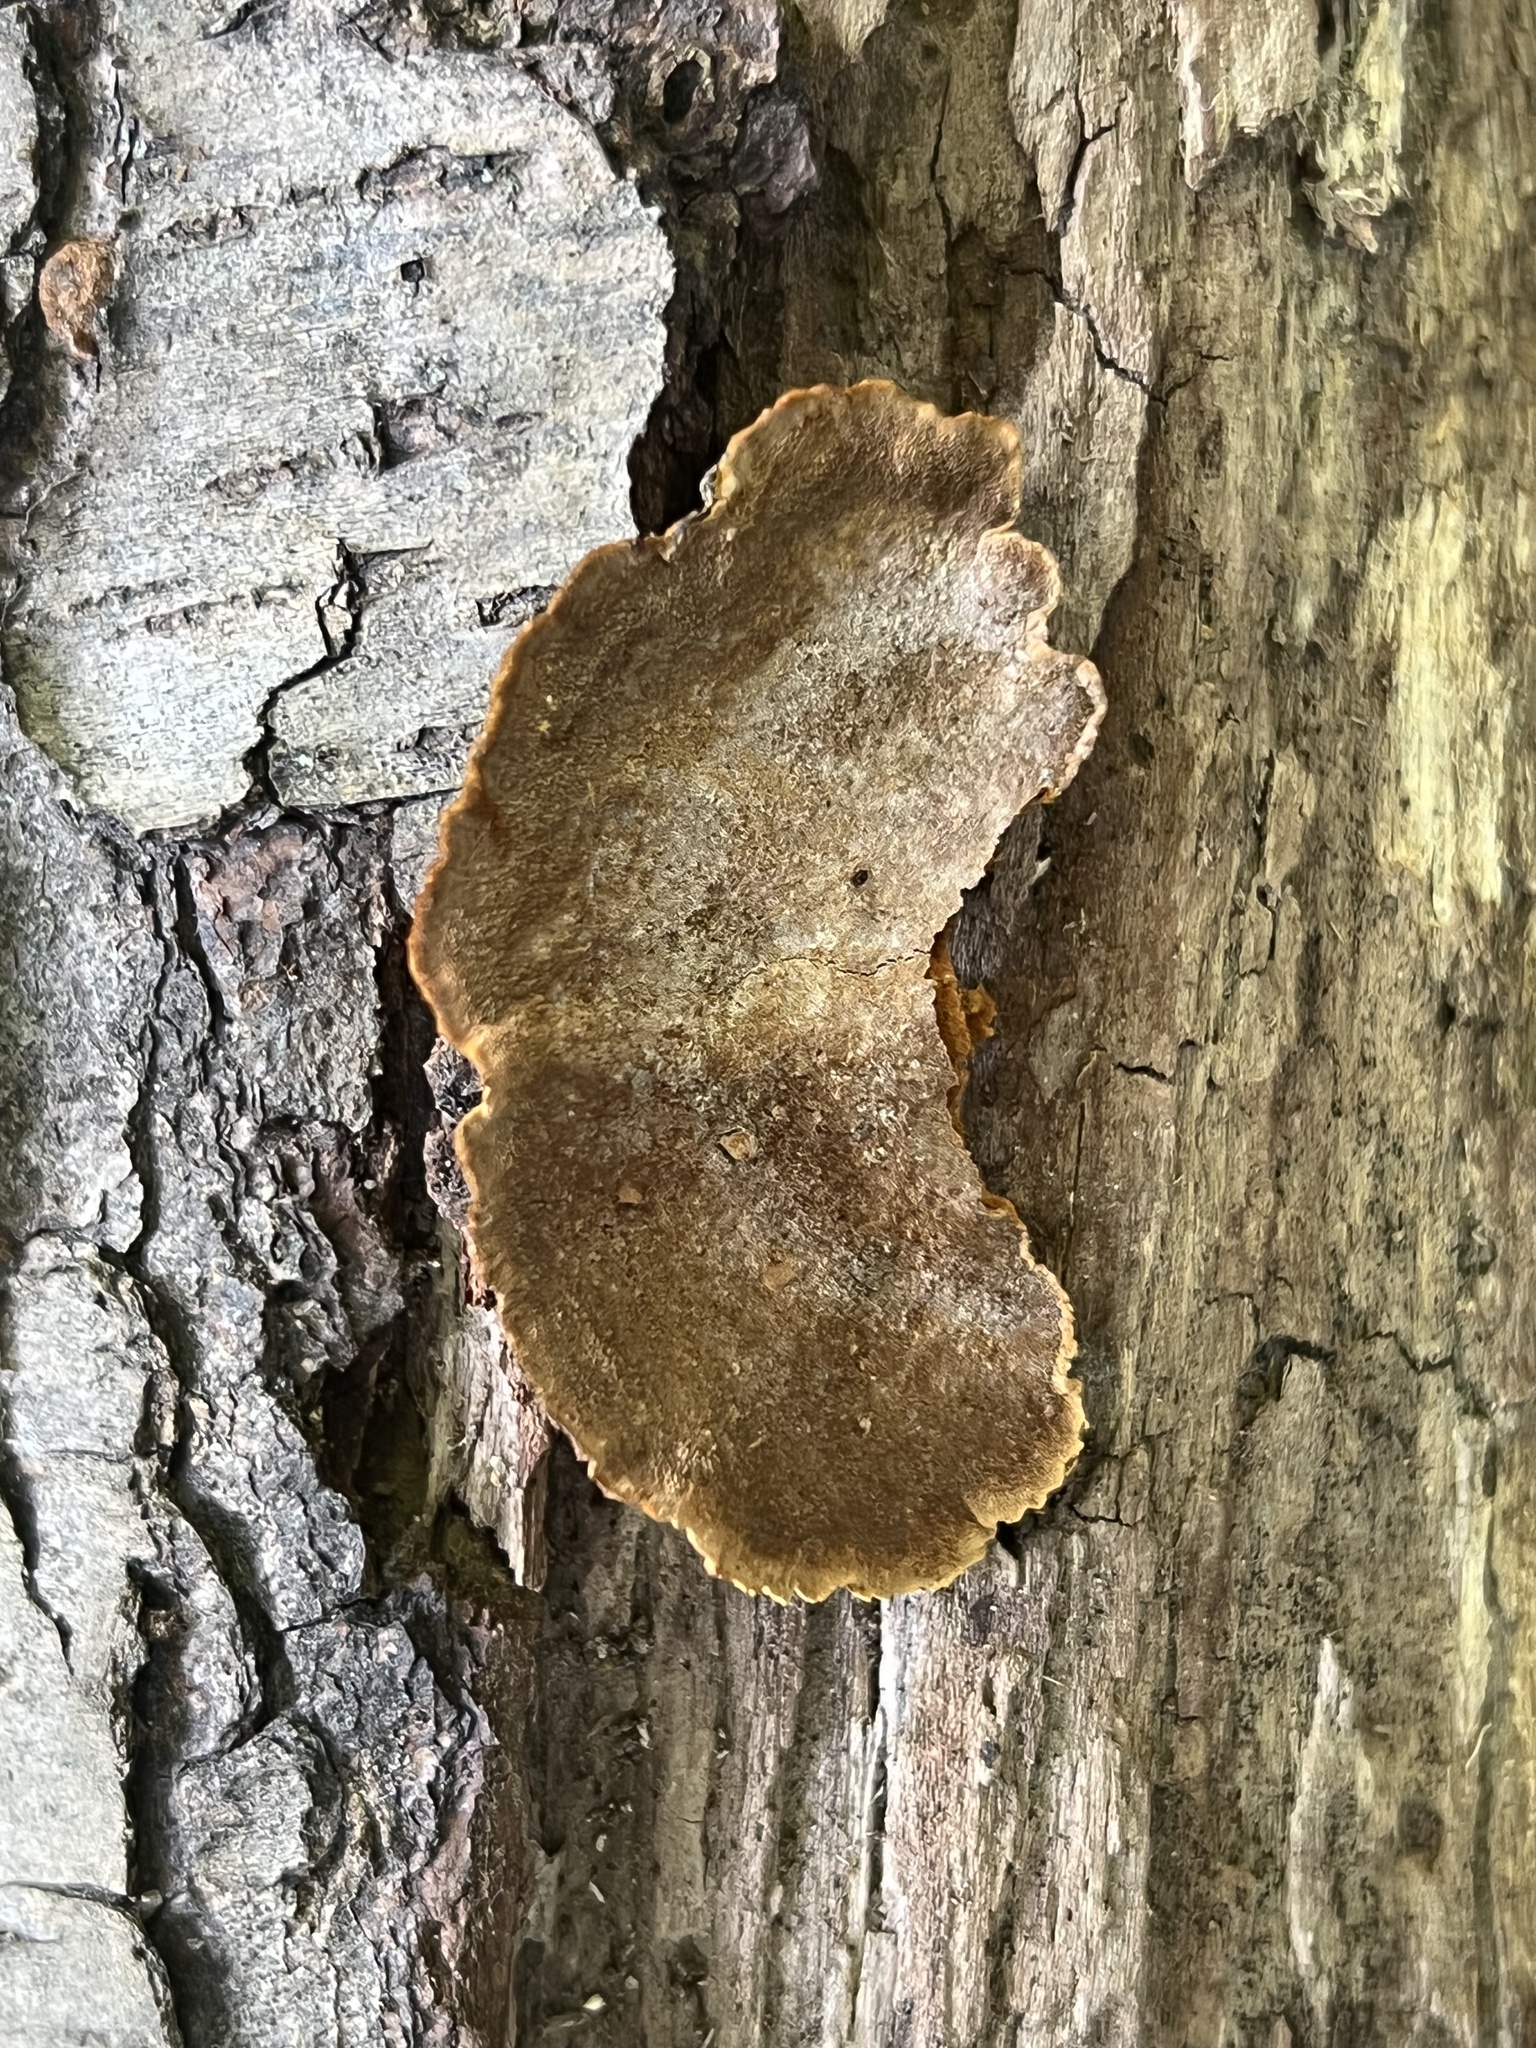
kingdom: Fungi
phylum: Basidiomycota
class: Agaricomycetes
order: Hymenochaetales
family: Hymenochaetaceae
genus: Phellinus
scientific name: Phellinus gilvus
